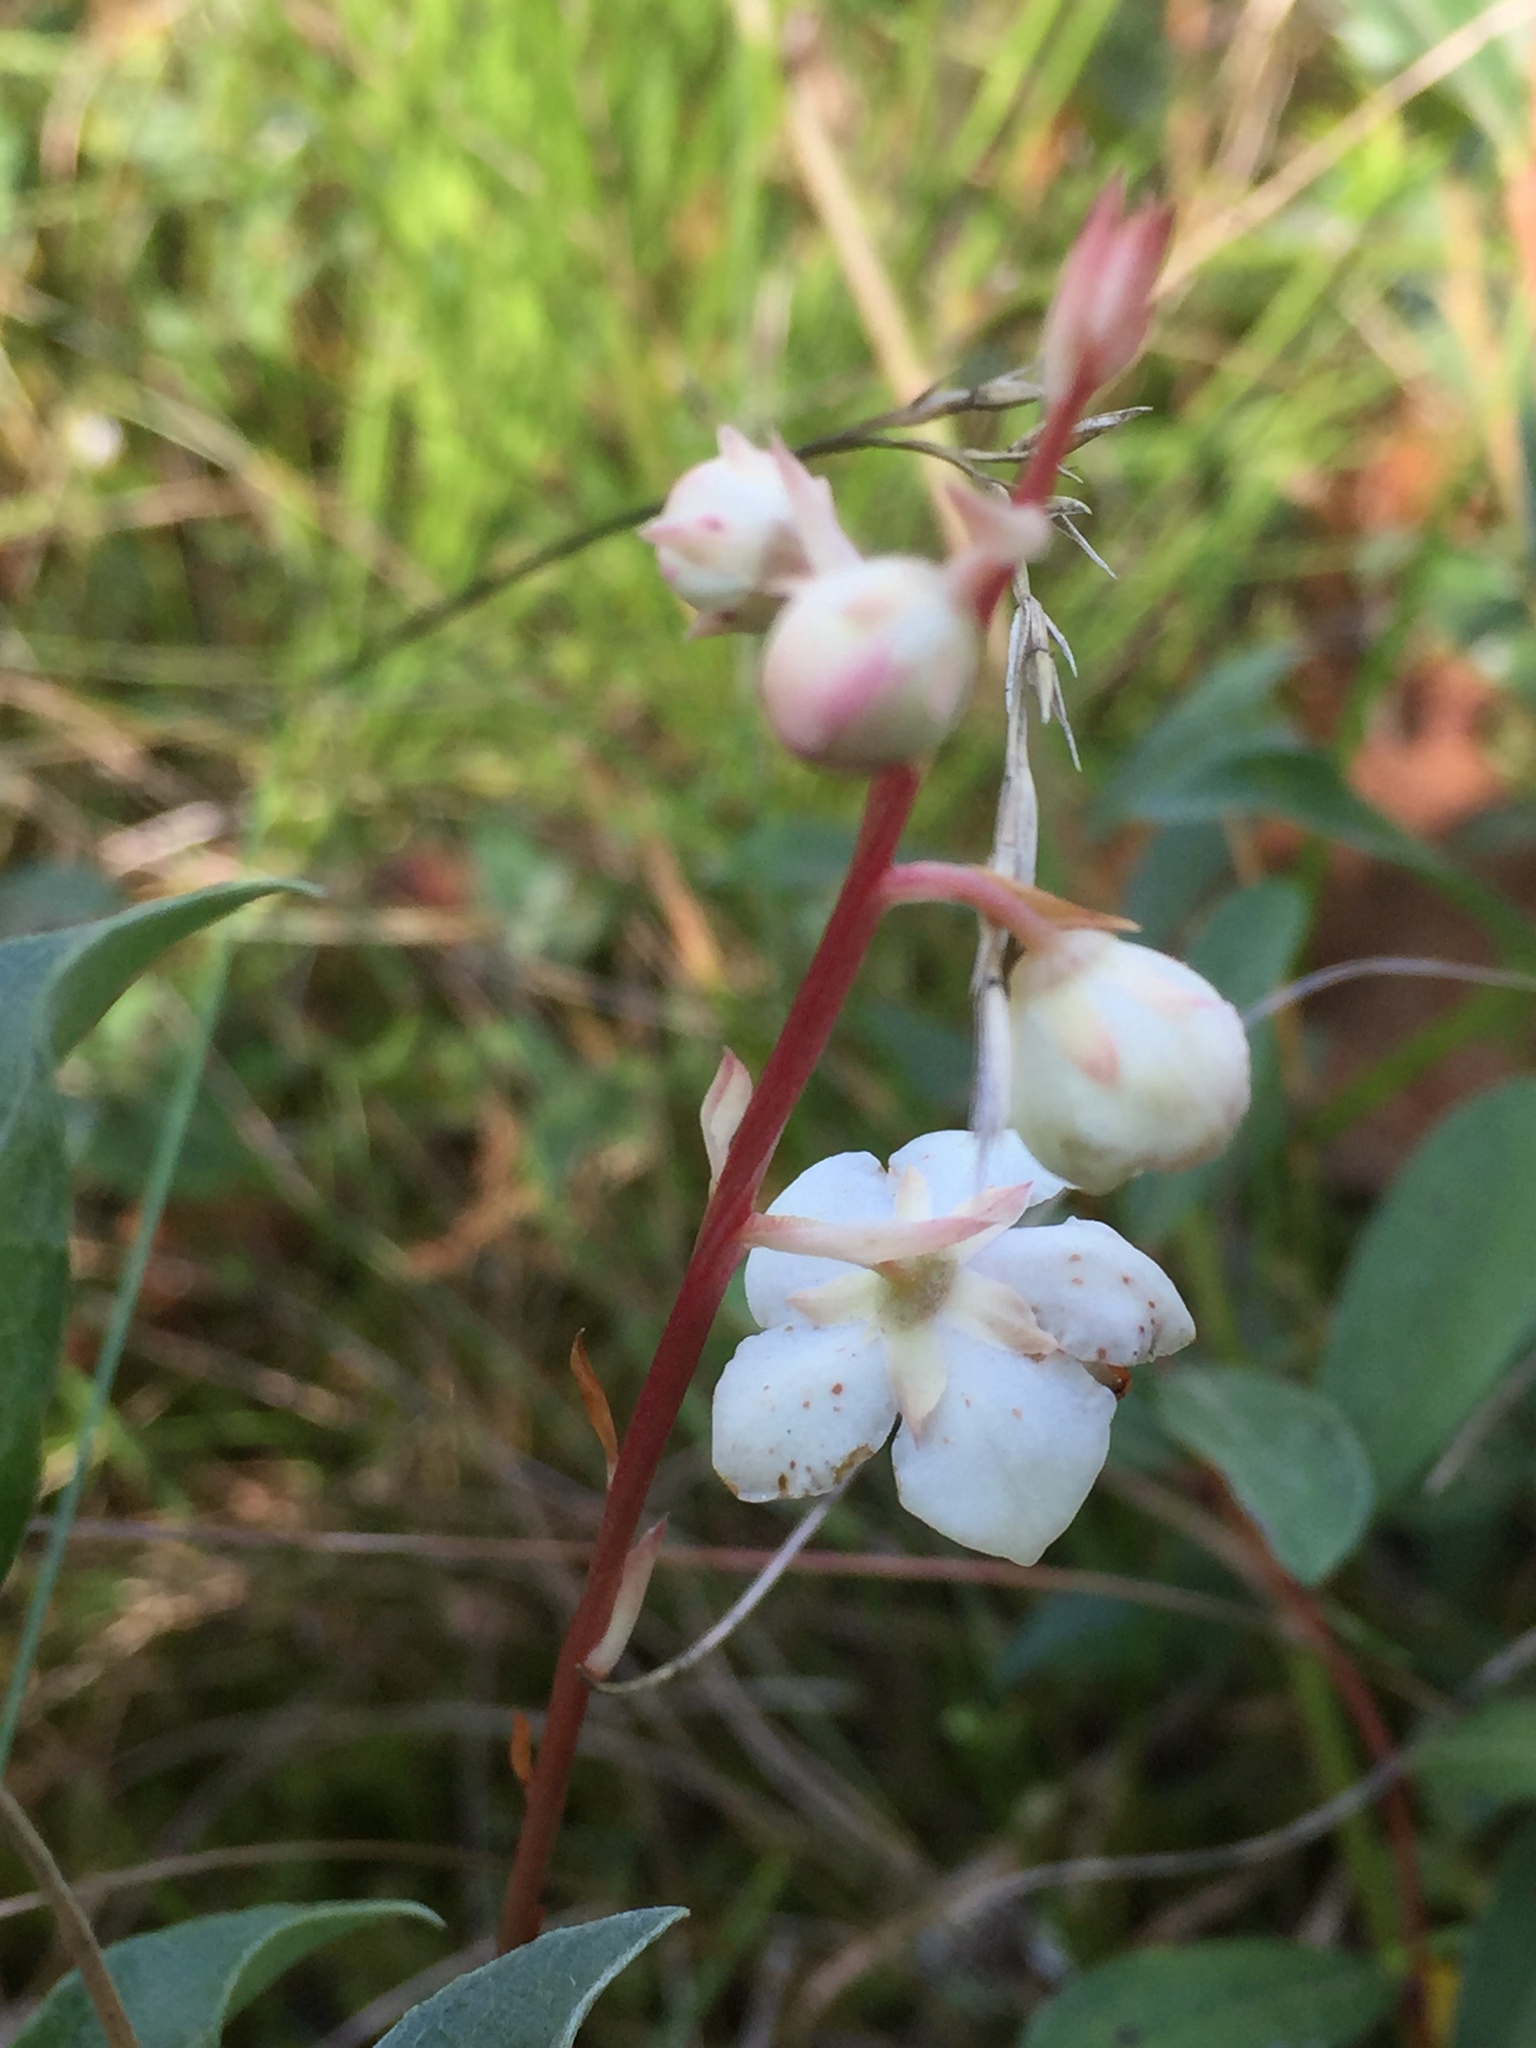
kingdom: Plantae
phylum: Tracheophyta
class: Magnoliopsida
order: Ericales
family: Ericaceae
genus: Pyrola
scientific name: Pyrola rotundifolia
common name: Round-leaved wintergreen
